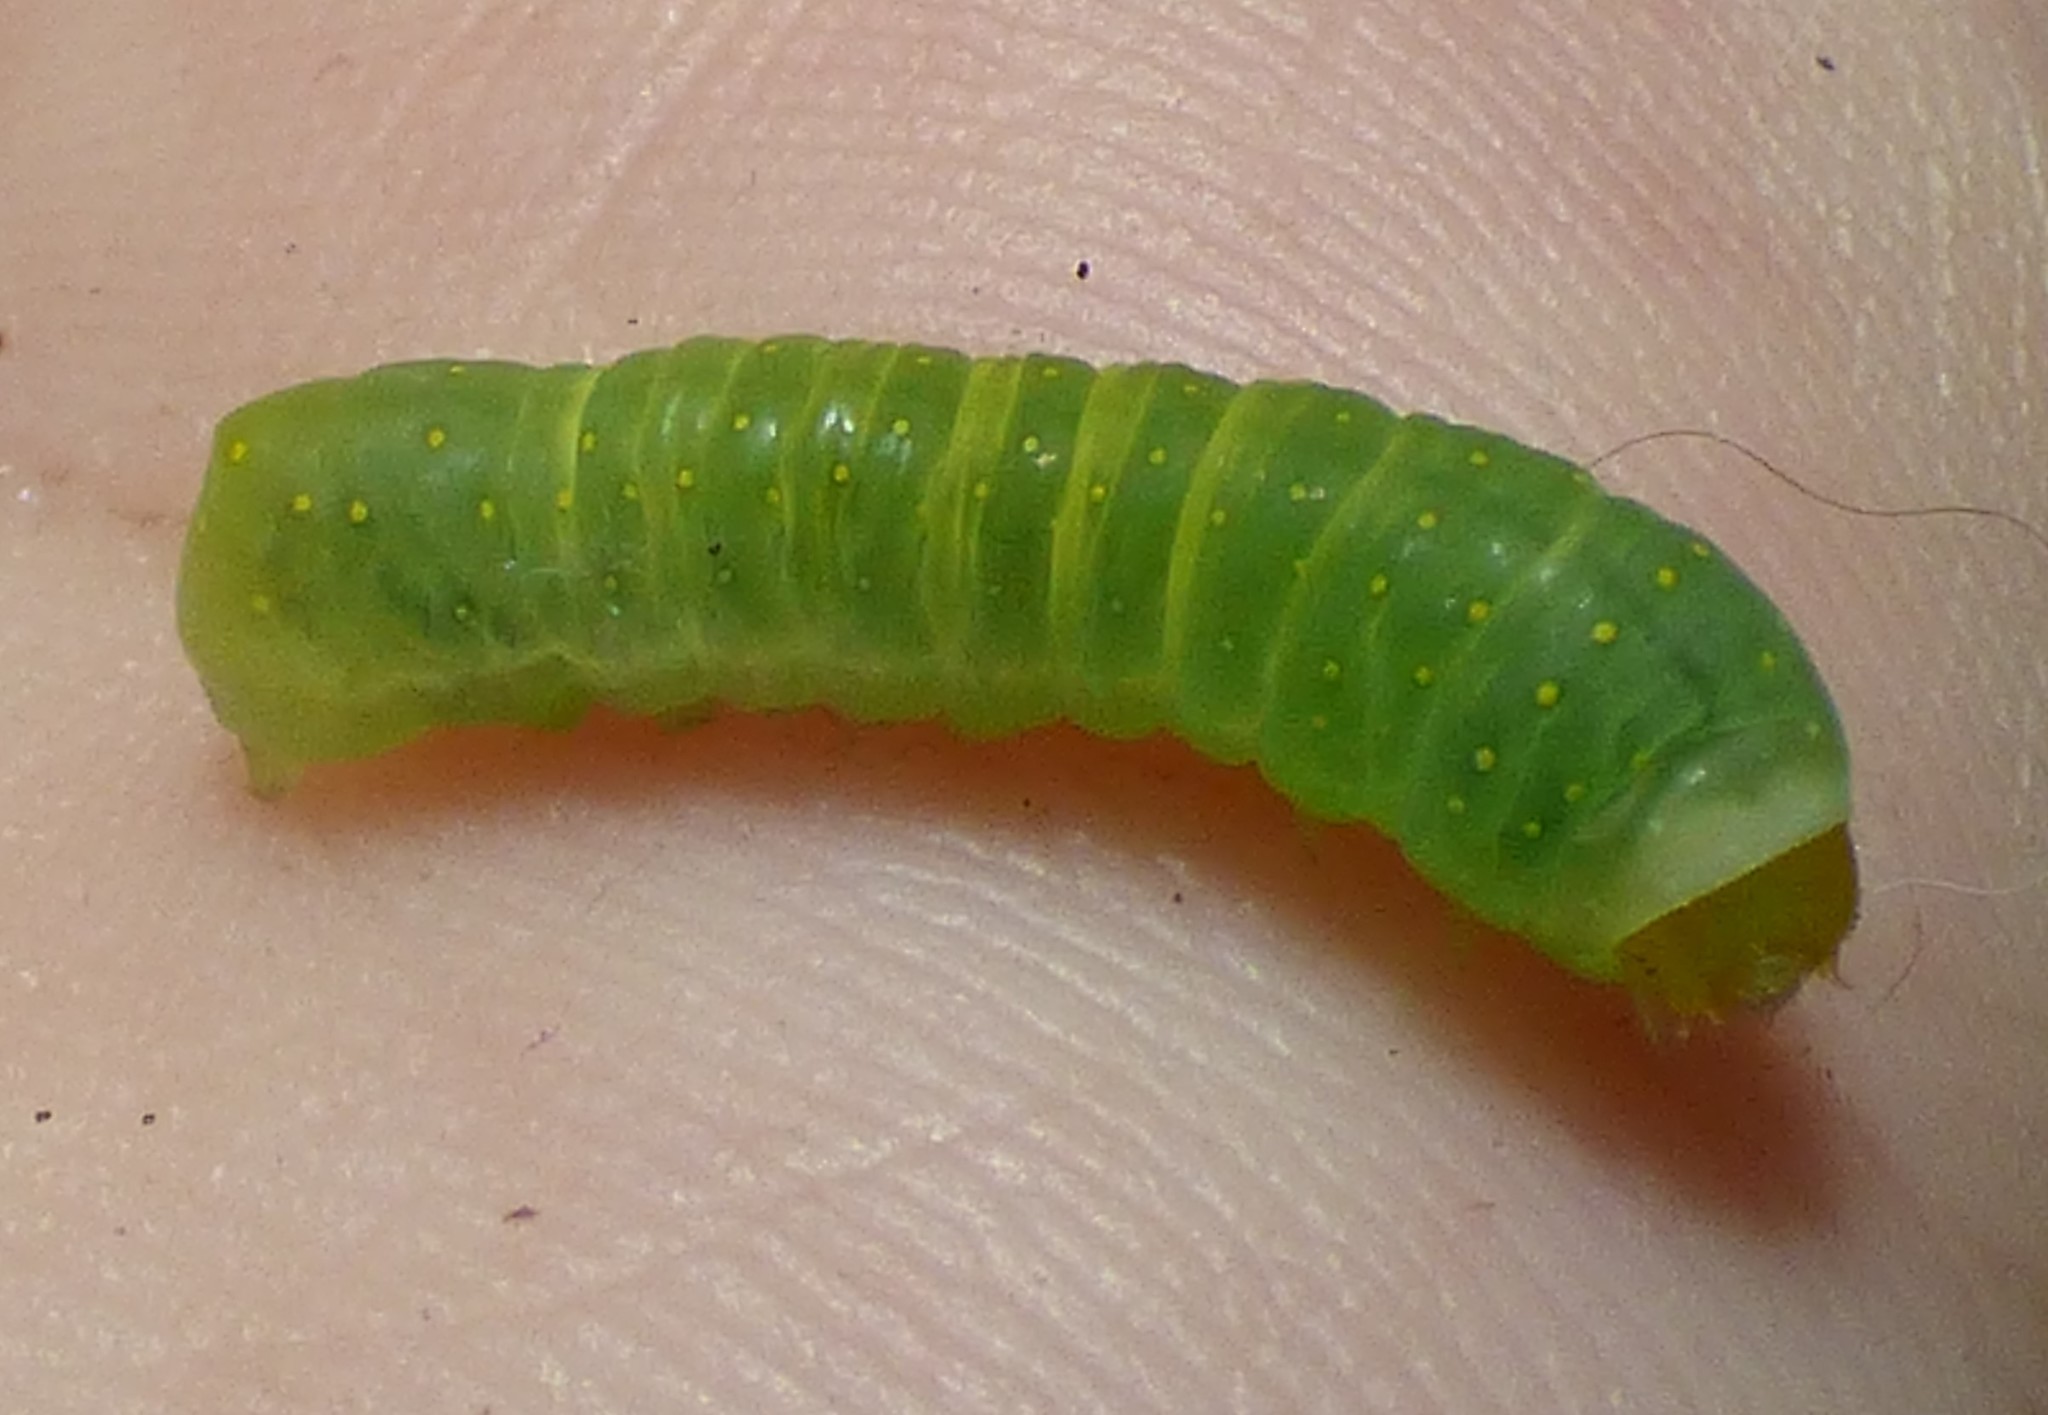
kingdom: Animalia
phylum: Arthropoda
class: Insecta
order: Lepidoptera
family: Noctuidae
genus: Phosphila
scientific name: Phosphila miselioides
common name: Spotted phosphila moth
